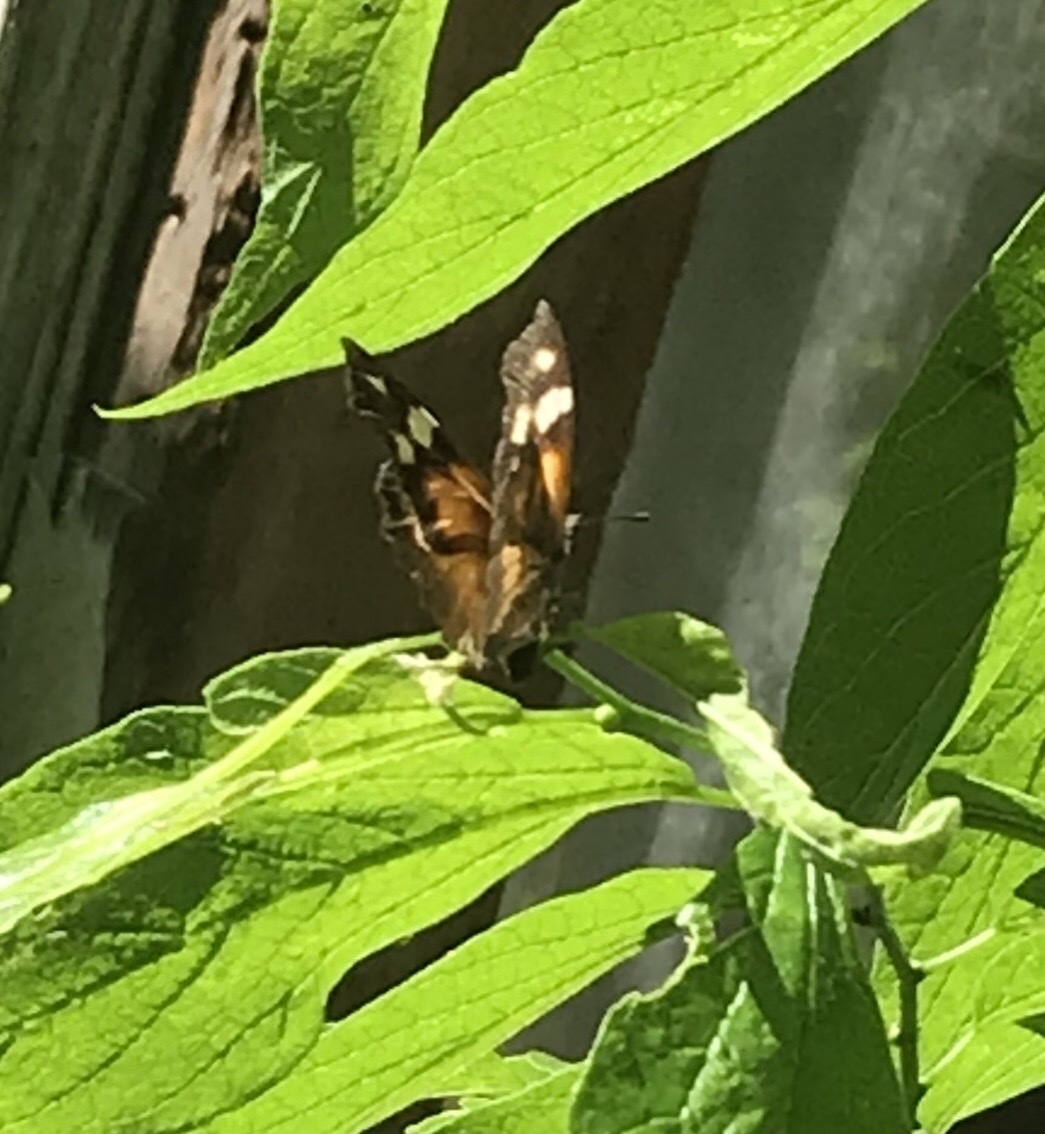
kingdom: Animalia
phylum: Arthropoda
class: Insecta
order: Lepidoptera
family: Nymphalidae
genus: Libytheana
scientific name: Libytheana carinenta
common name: American snout
